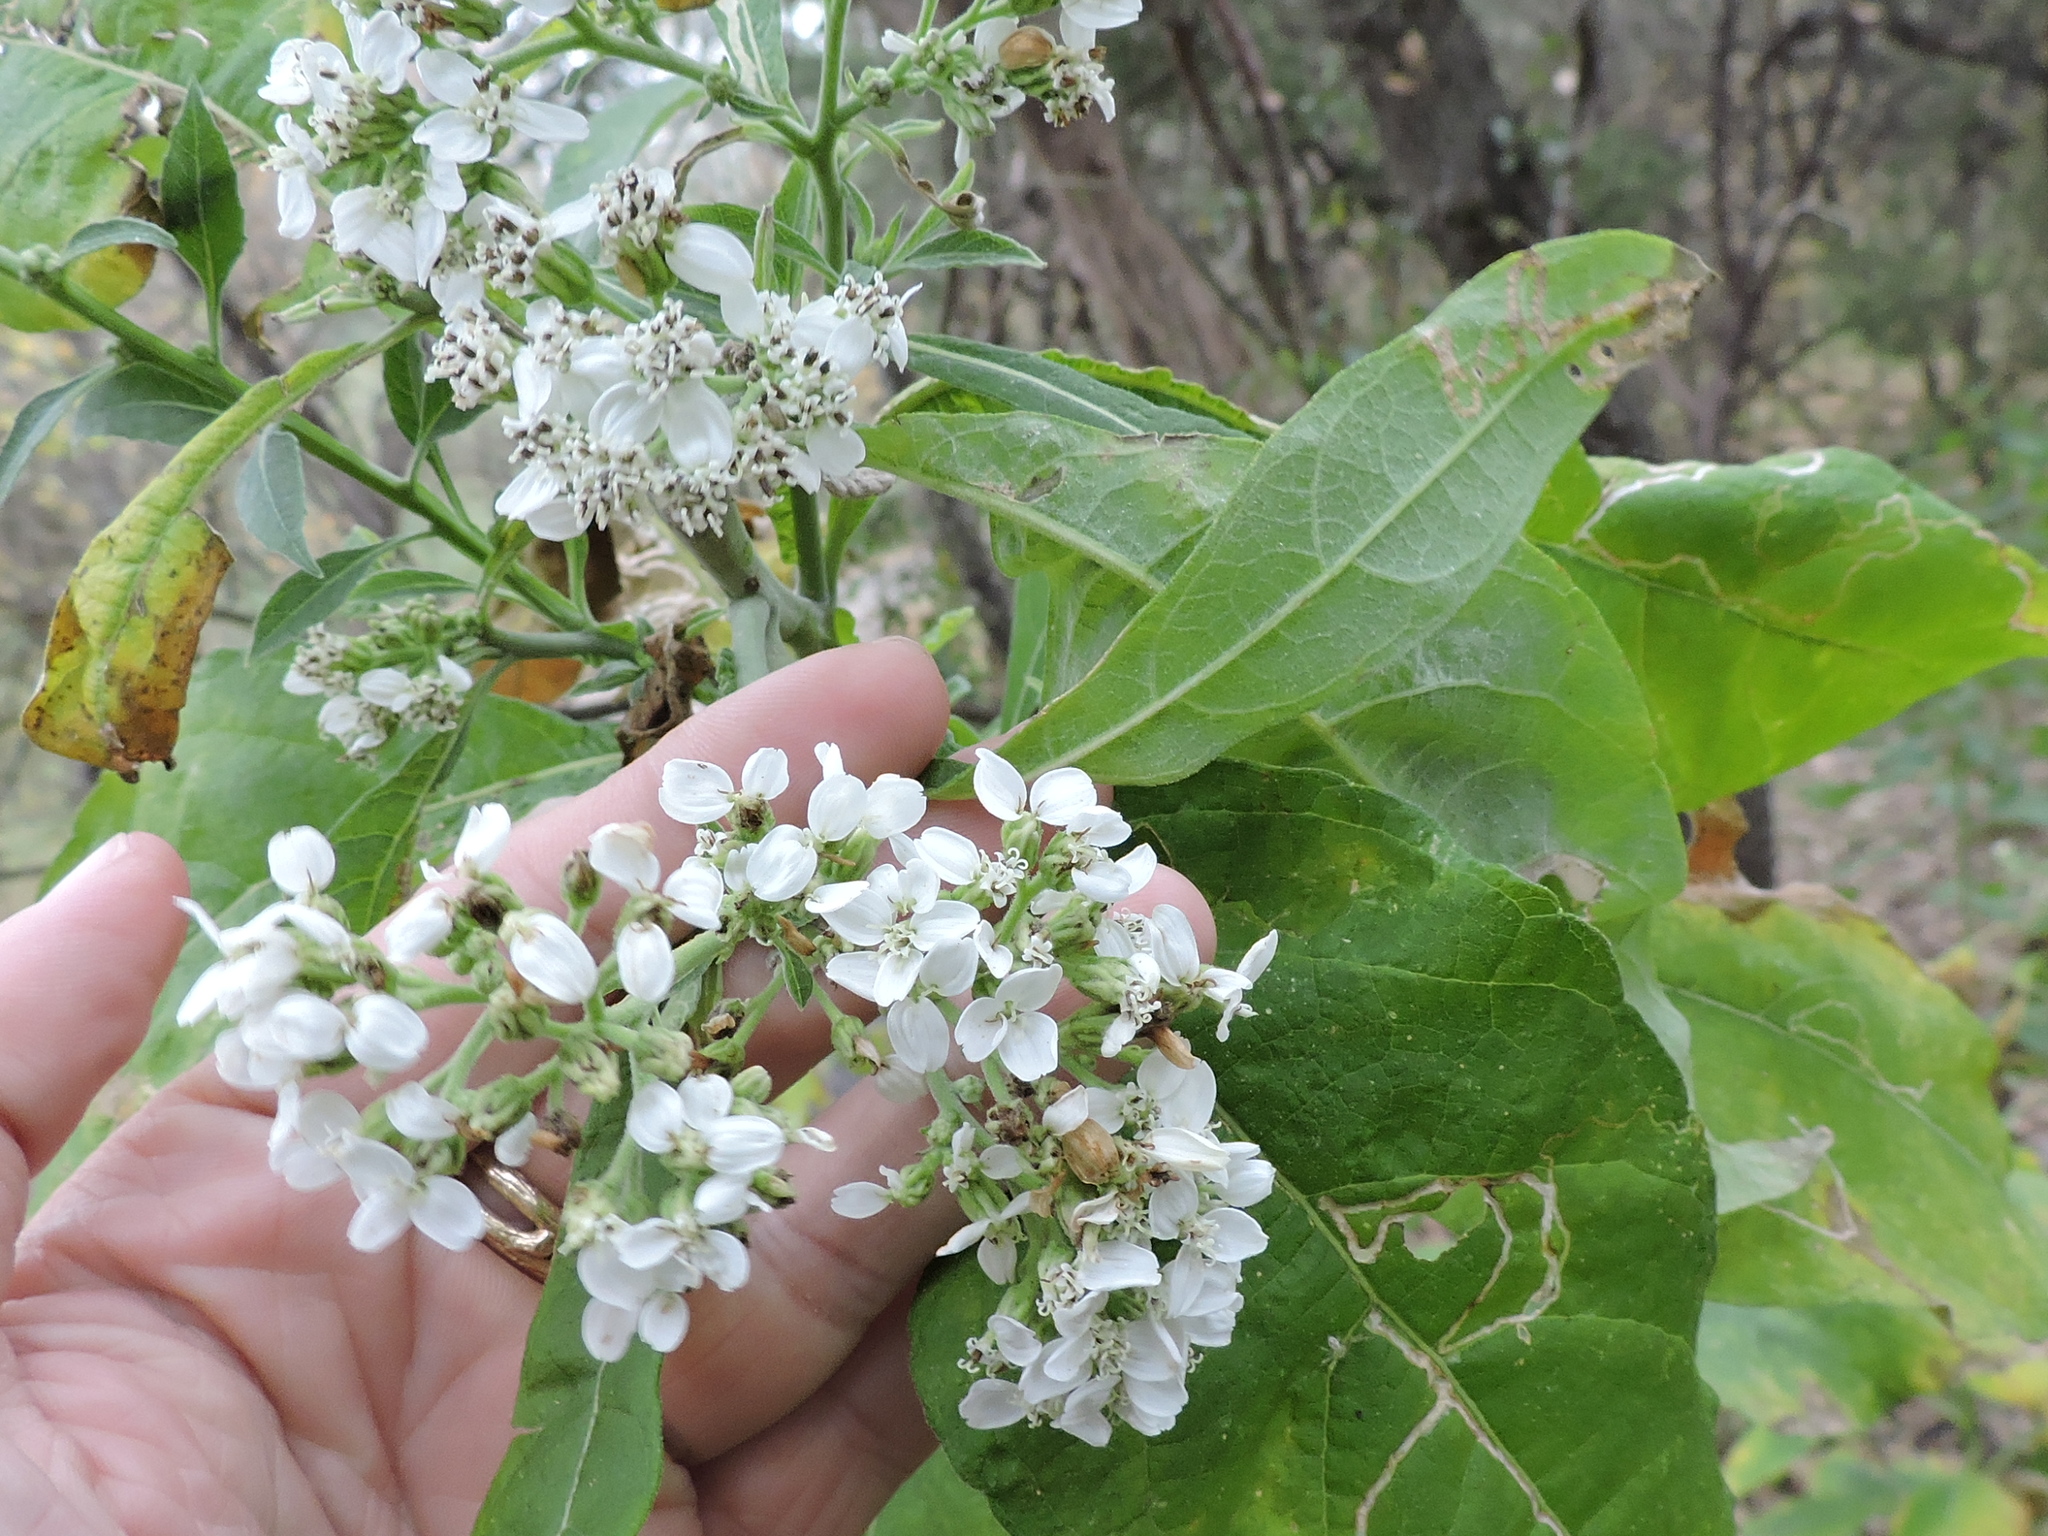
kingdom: Plantae
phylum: Tracheophyta
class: Magnoliopsida
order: Asterales
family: Asteraceae
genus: Verbesina
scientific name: Verbesina virginica
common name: Frostweed
